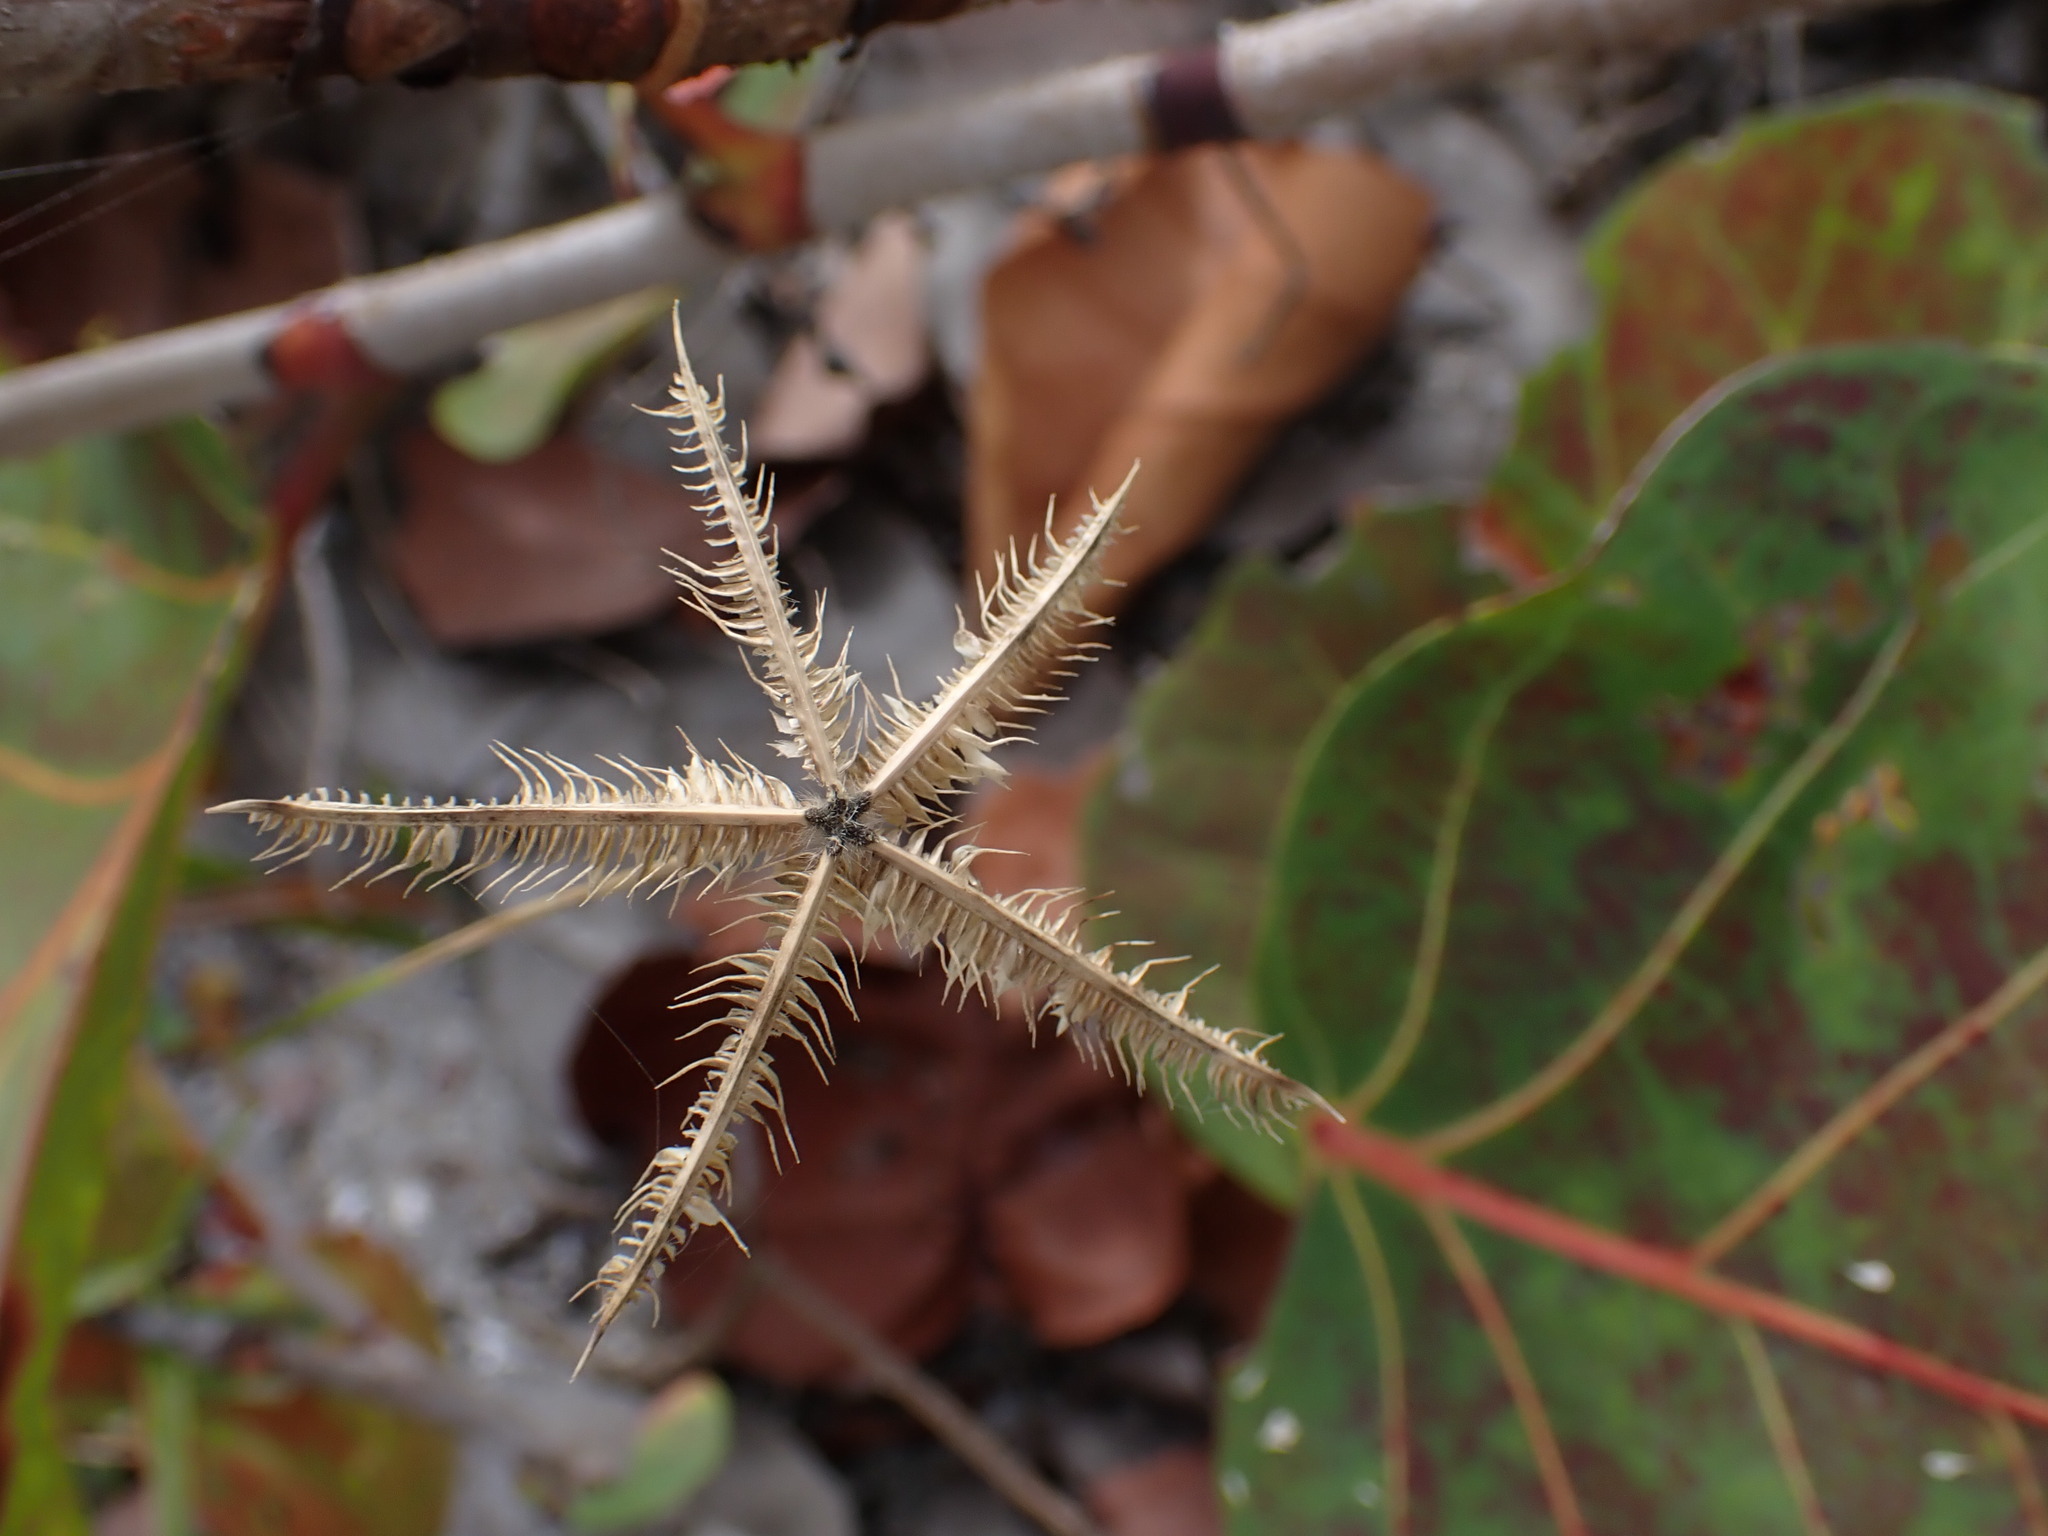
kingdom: Plantae
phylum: Tracheophyta
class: Liliopsida
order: Poales
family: Poaceae
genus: Dactyloctenium
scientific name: Dactyloctenium aegyptium
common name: Egyptian grass
